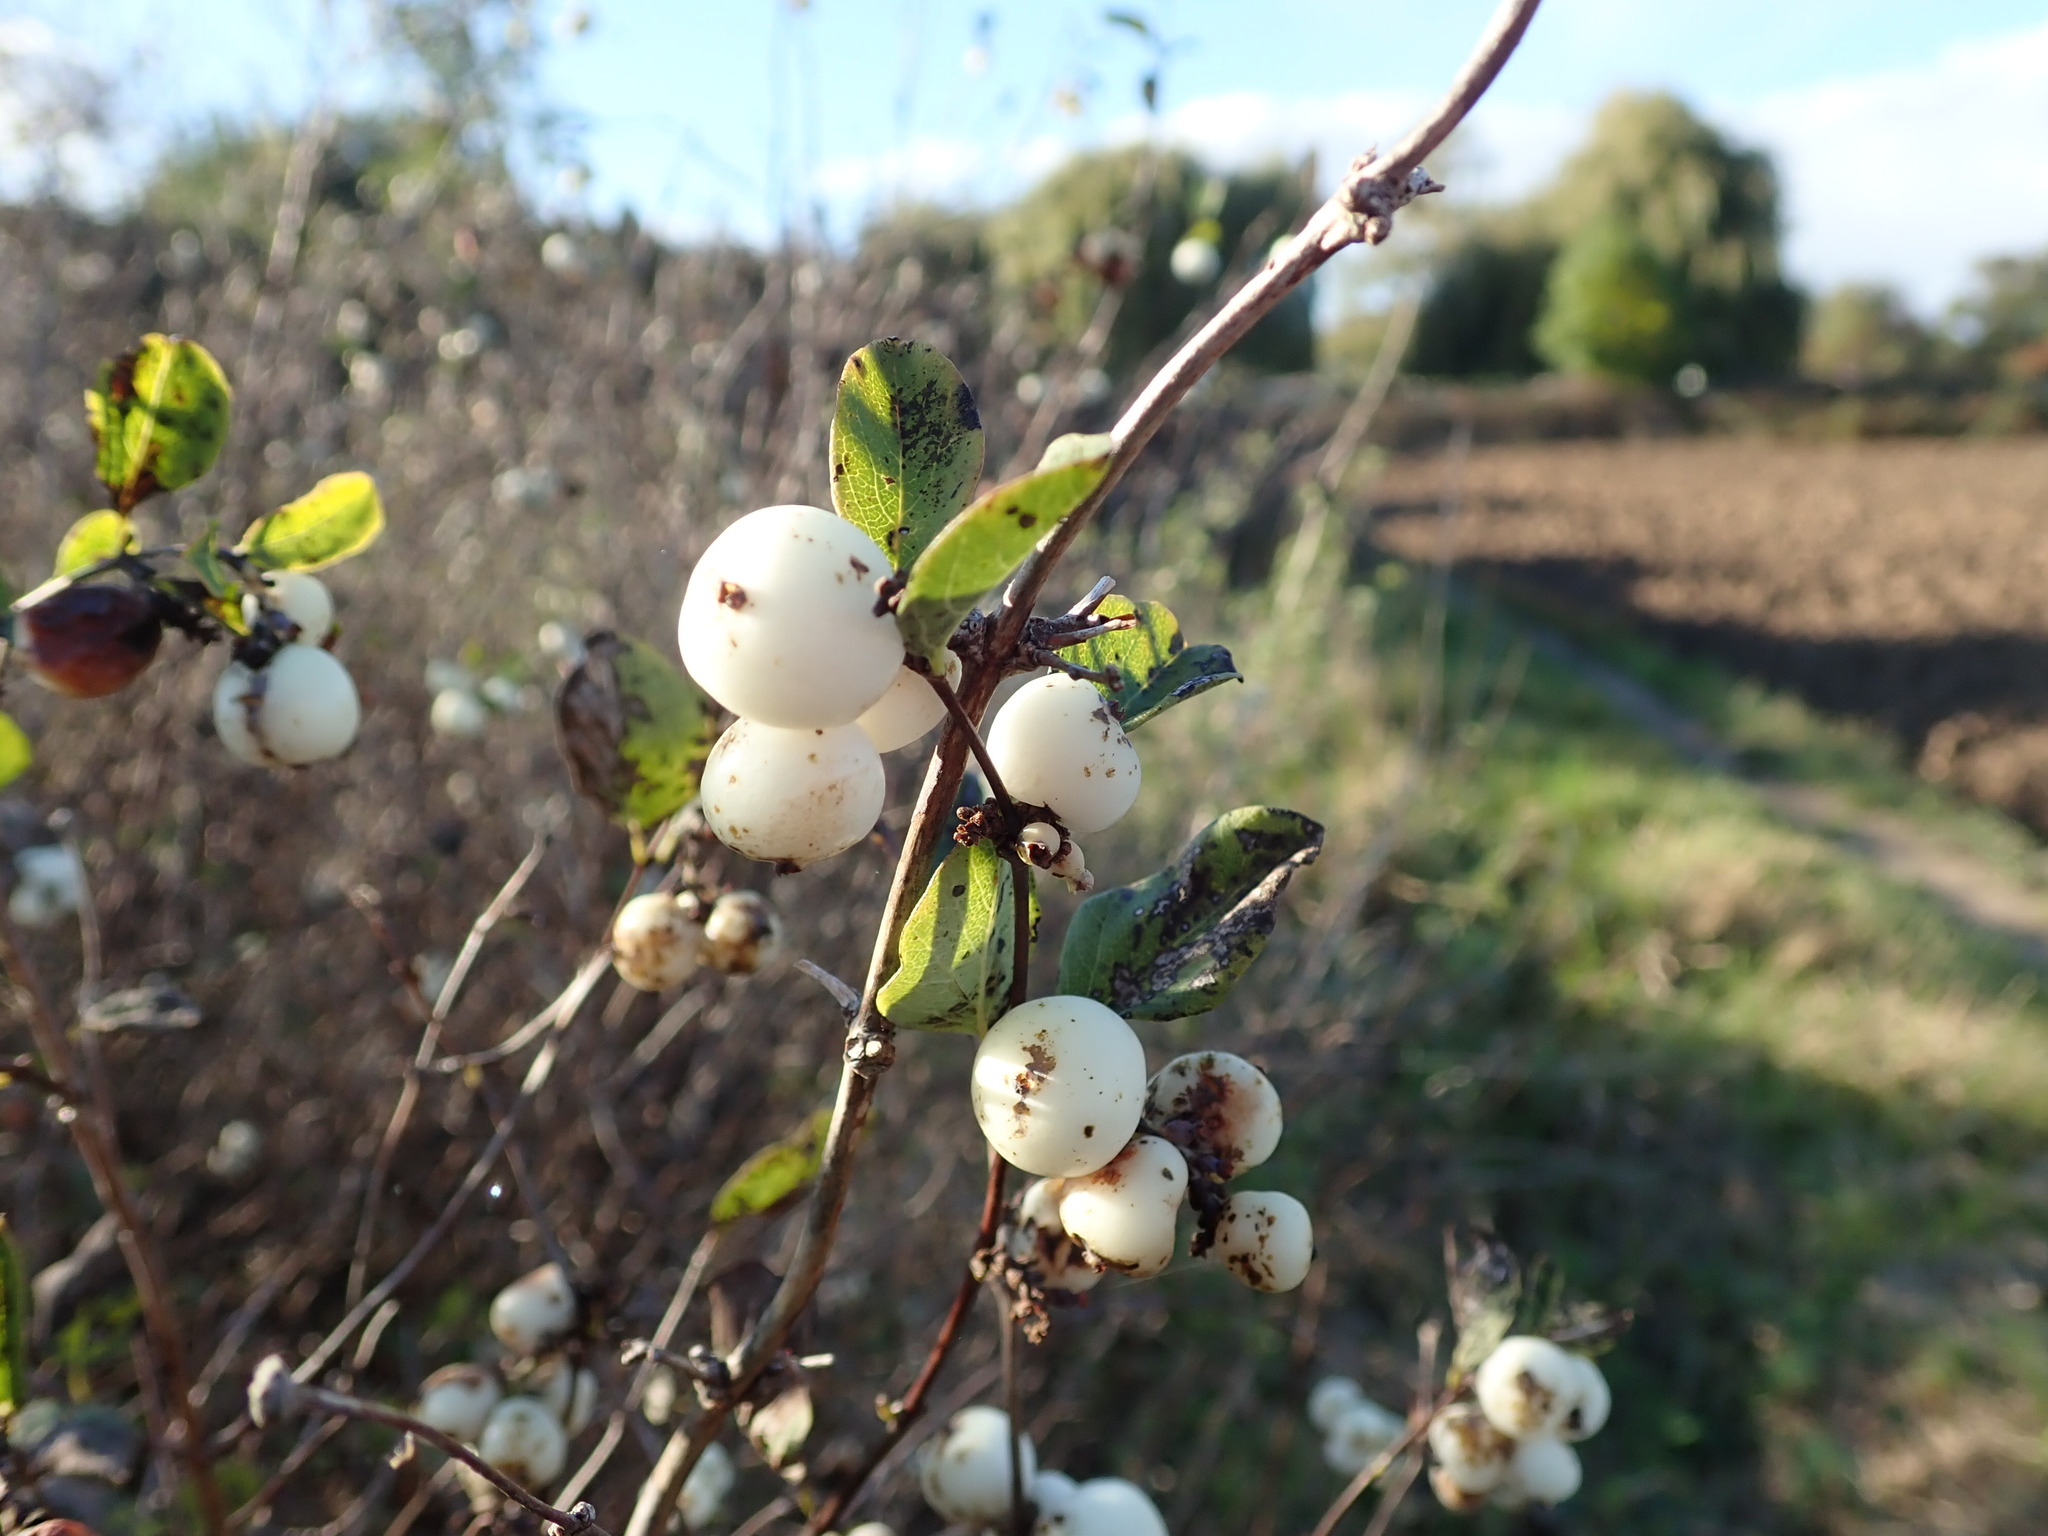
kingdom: Plantae
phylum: Tracheophyta
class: Magnoliopsida
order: Dipsacales
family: Caprifoliaceae
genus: Symphoricarpos
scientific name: Symphoricarpos albus
